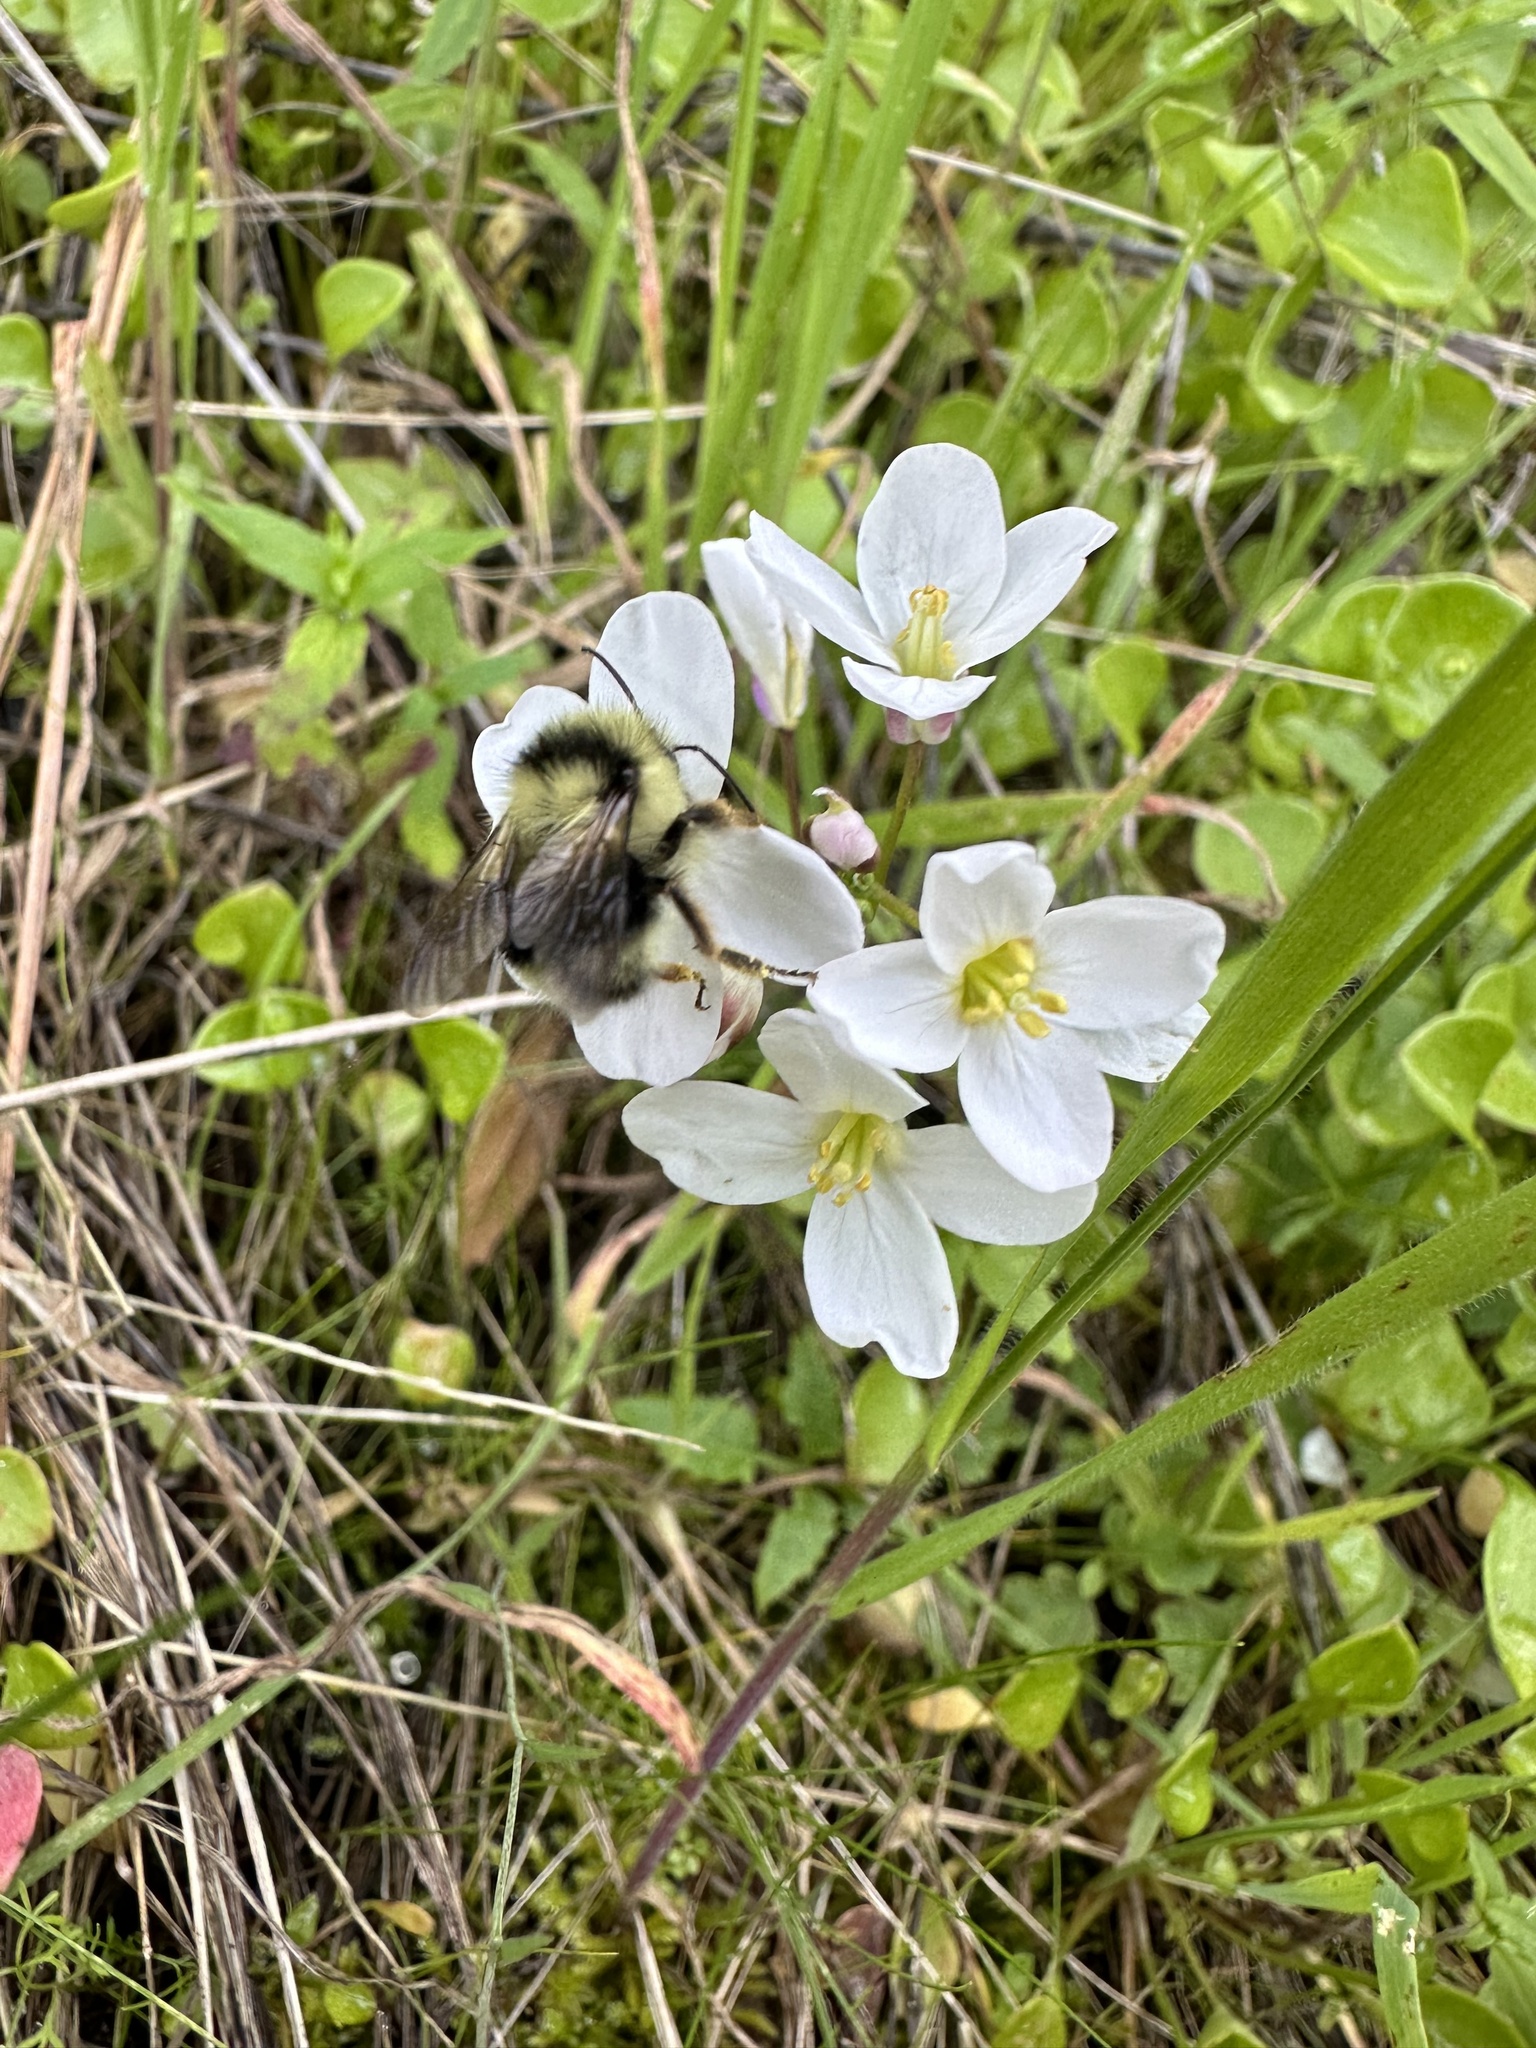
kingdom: Animalia
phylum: Arthropoda
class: Insecta
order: Hymenoptera
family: Apidae
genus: Bombus
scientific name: Bombus melanopygus
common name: Black tail bumble bee
